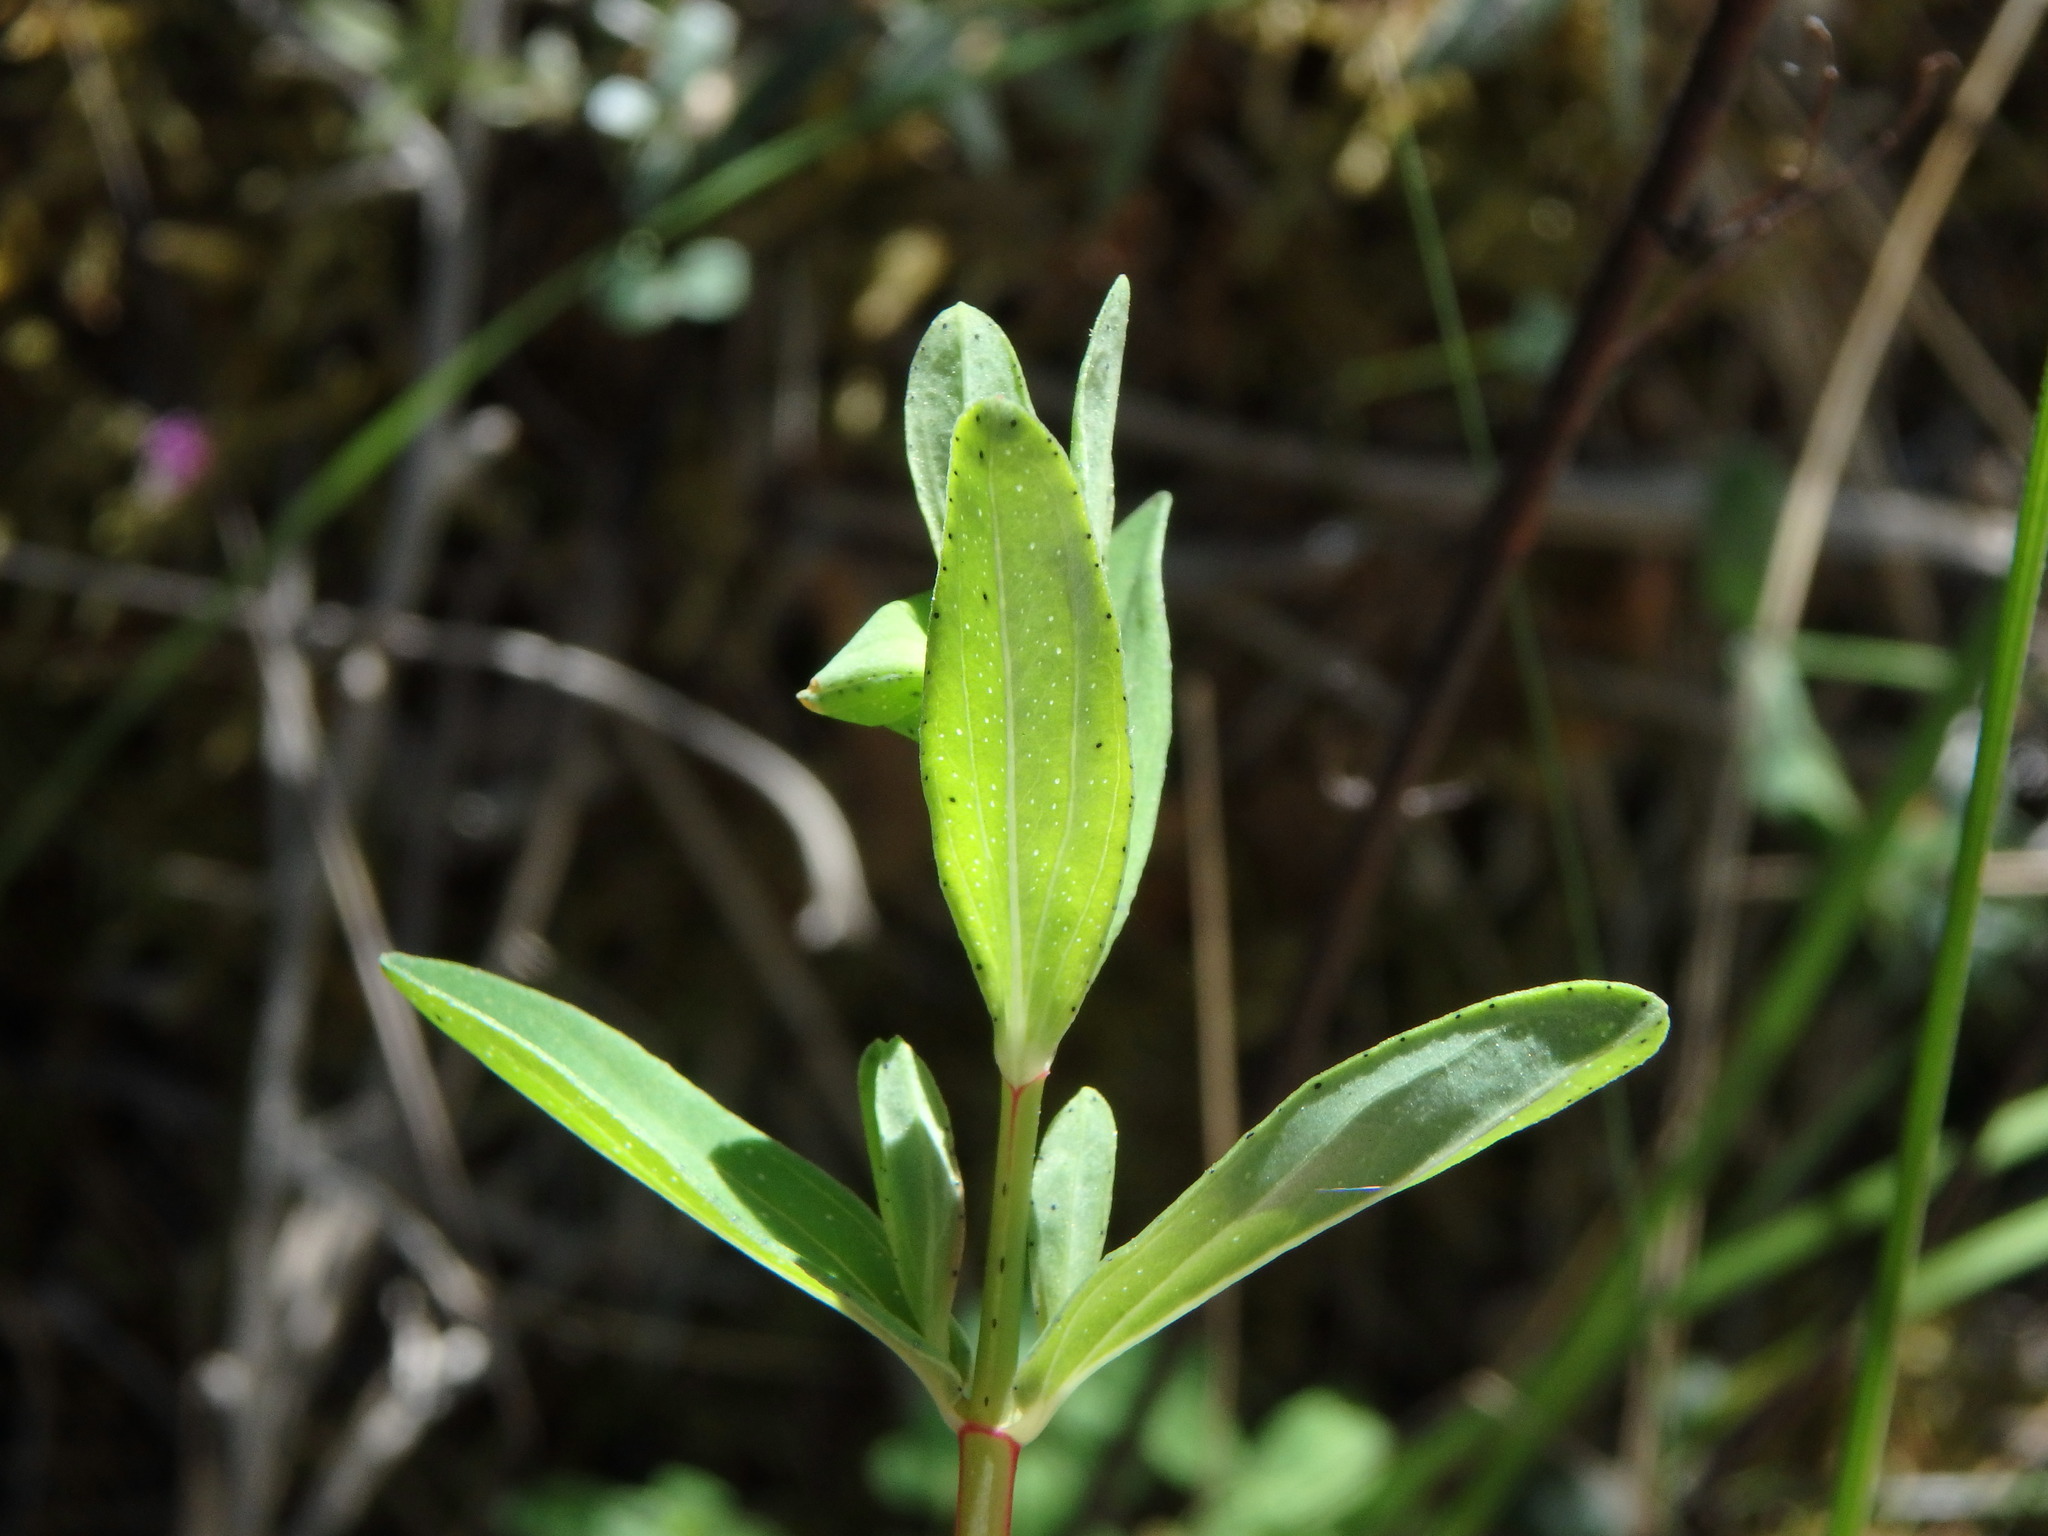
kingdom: Plantae
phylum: Tracheophyta
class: Magnoliopsida
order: Malpighiales
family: Hypericaceae
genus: Hypericum
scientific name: Hypericum perforatum
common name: Common st. johnswort
